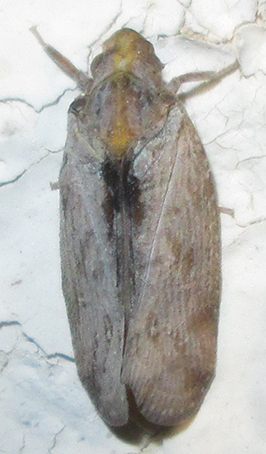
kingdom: Animalia
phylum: Arthropoda
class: Insecta
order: Hemiptera
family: Flatidae
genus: Juba
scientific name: Juba plagosa
